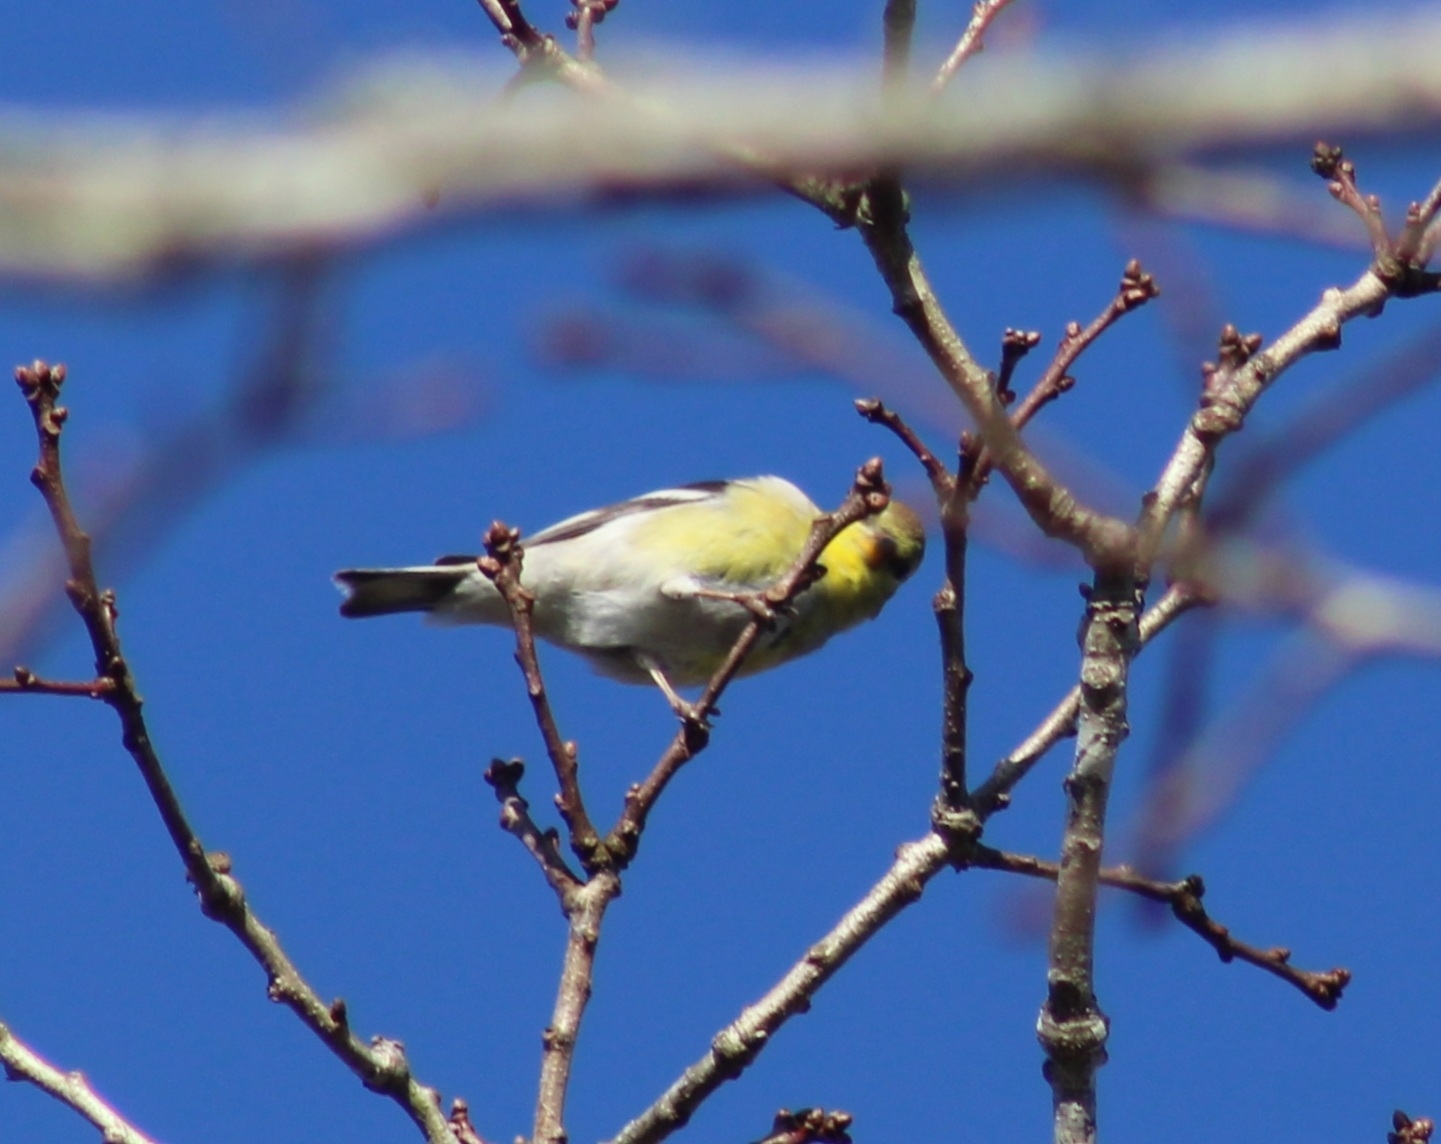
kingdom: Animalia
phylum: Chordata
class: Aves
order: Passeriformes
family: Fringillidae
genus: Spinus
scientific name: Spinus tristis
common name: American goldfinch
